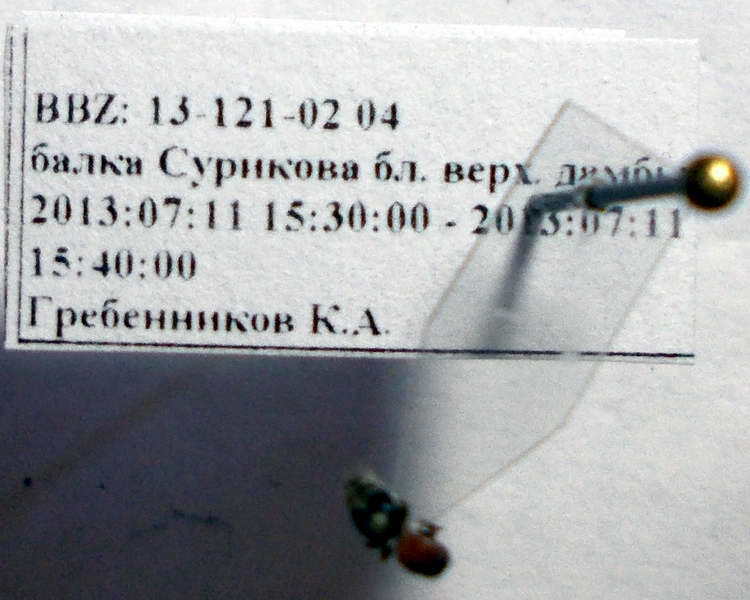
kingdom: Animalia
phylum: Arthropoda
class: Insecta
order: Hymenoptera
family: Mutillidae
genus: Smicromyrme
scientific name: Smicromyrme rufipes
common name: Small velvet ant
